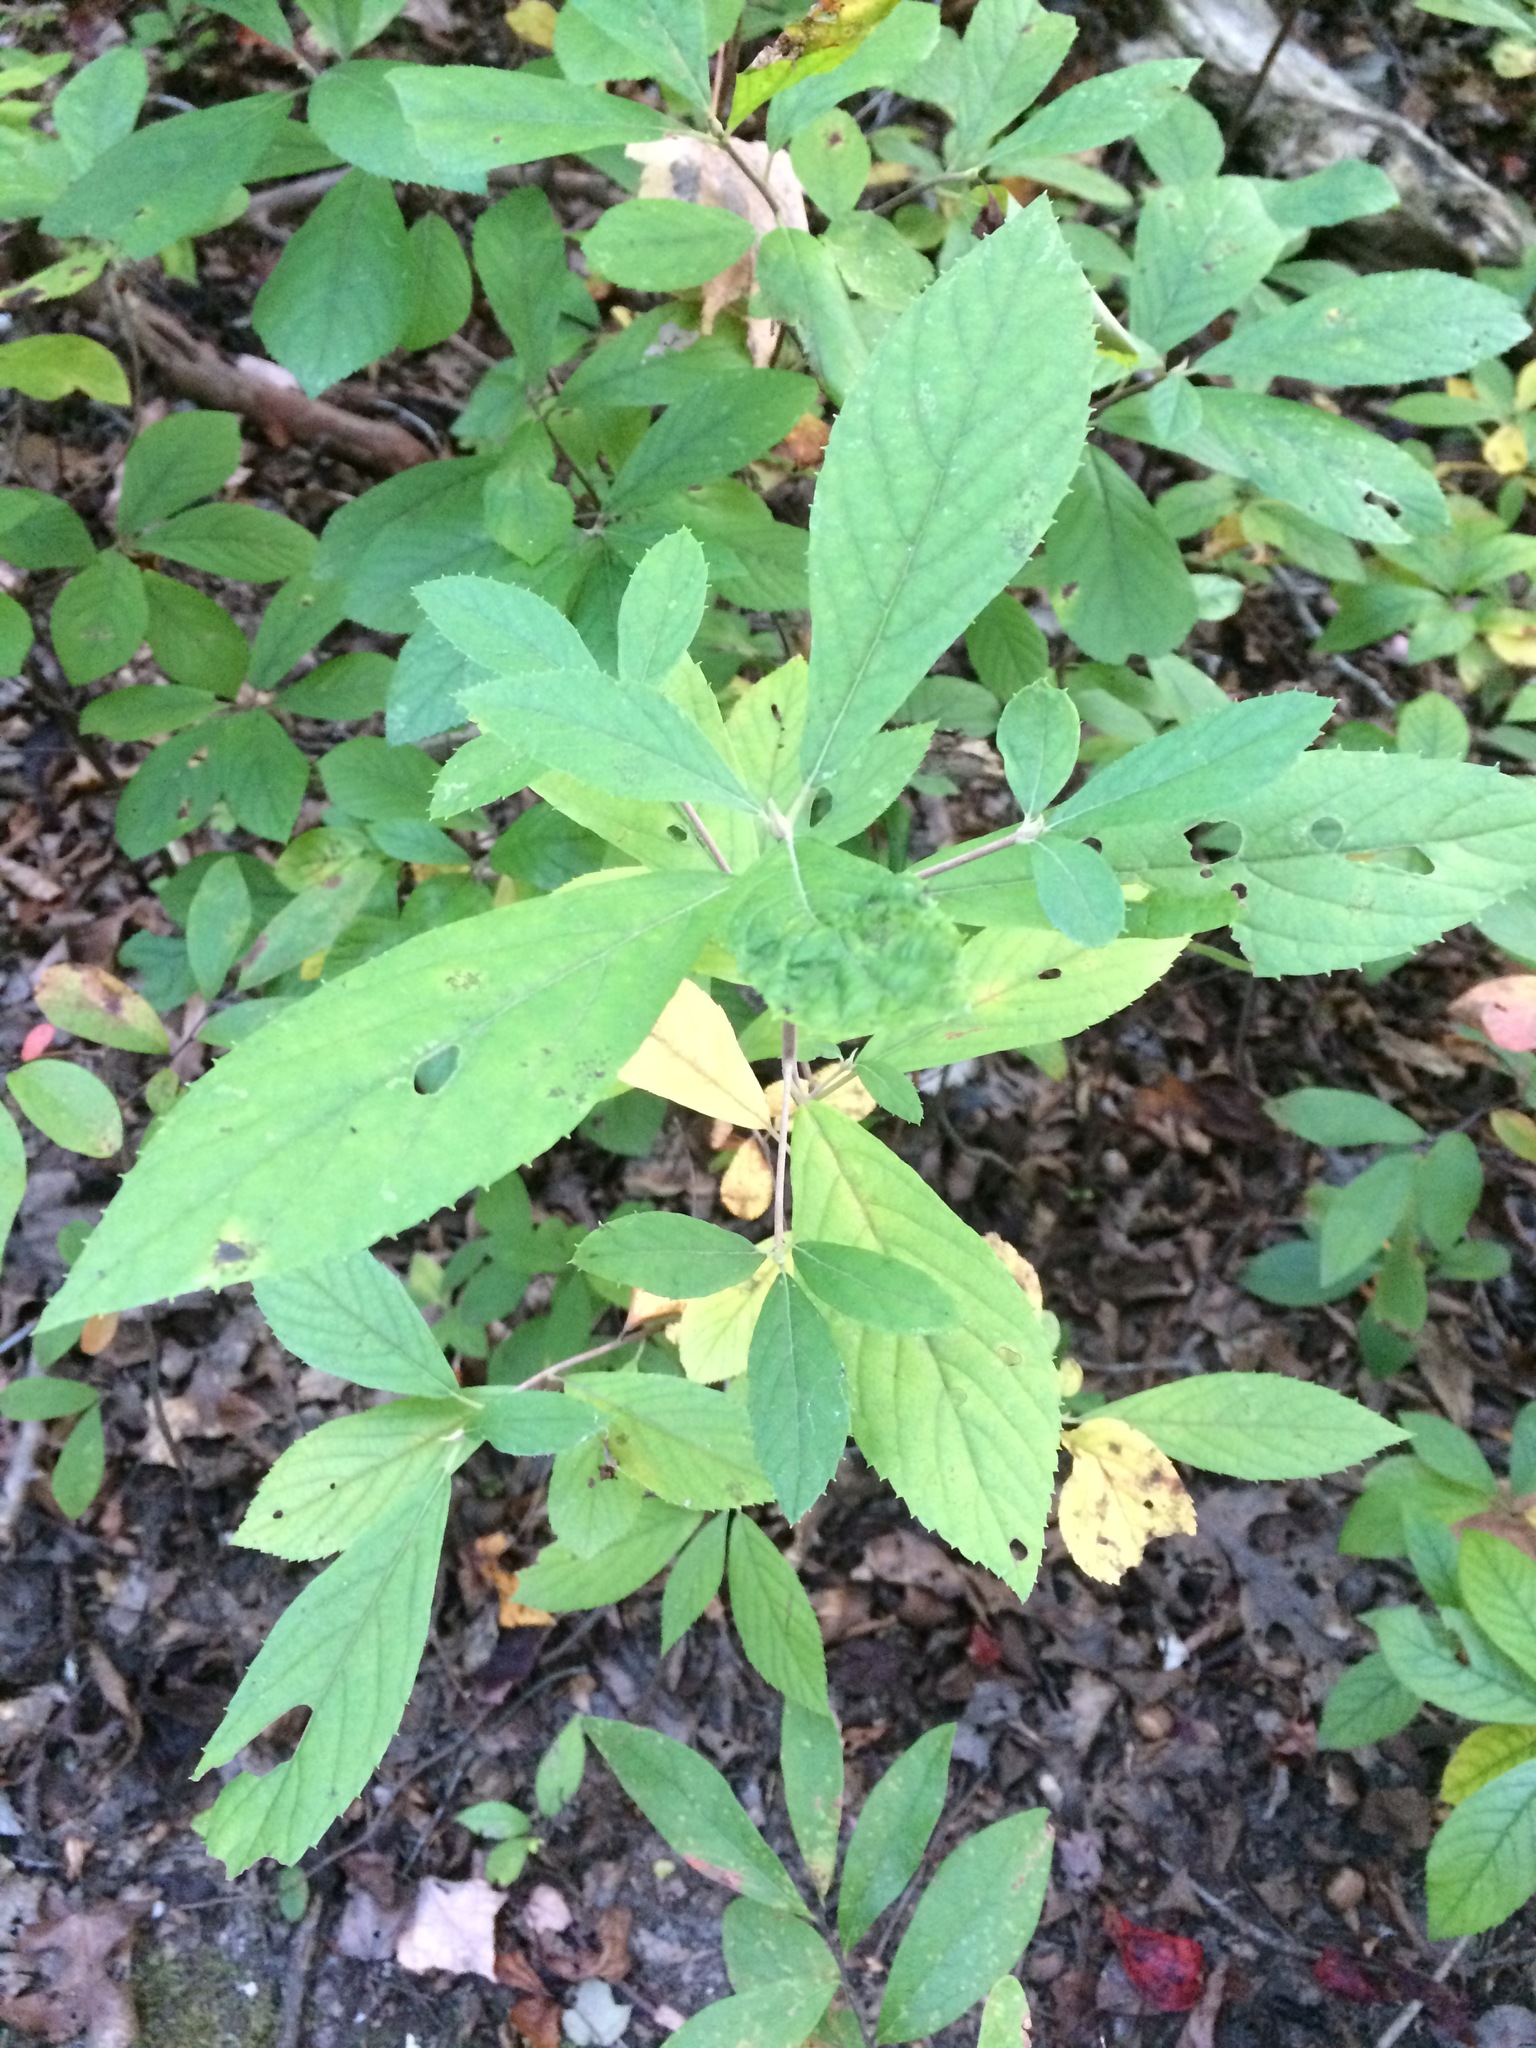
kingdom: Plantae
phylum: Tracheophyta
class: Magnoliopsida
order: Ericales
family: Clethraceae
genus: Clethra
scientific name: Clethra alnifolia
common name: Sweet pepperbush
